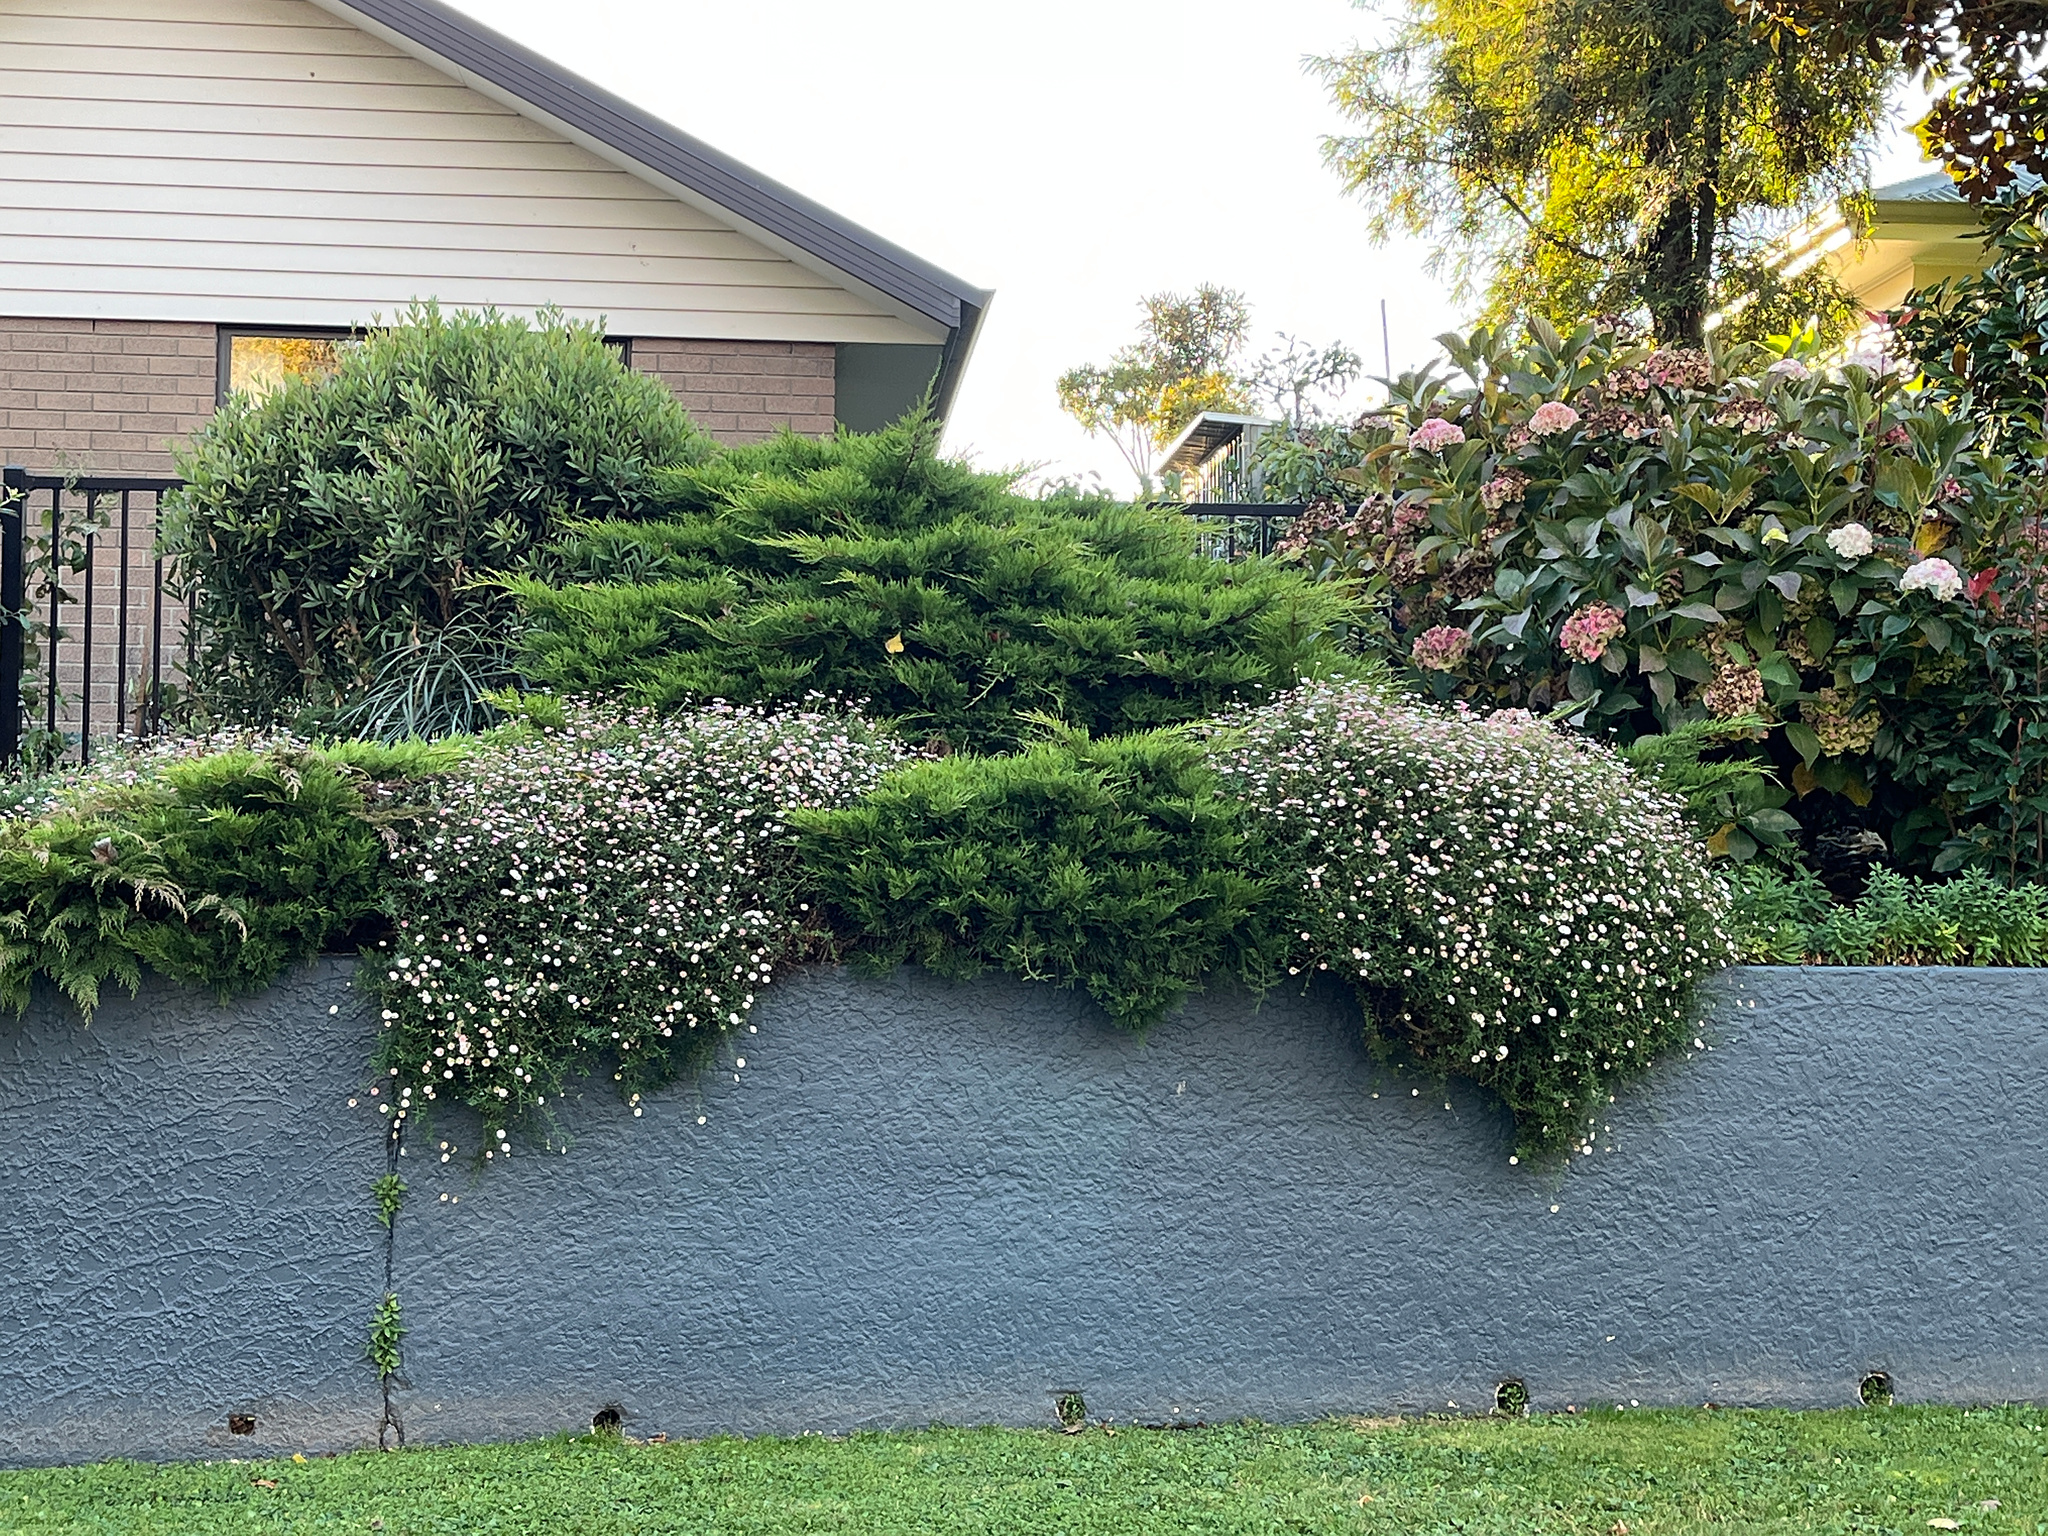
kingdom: Plantae
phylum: Tracheophyta
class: Magnoliopsida
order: Asterales
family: Asteraceae
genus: Erigeron
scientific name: Erigeron karvinskianus
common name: Mexican fleabane
